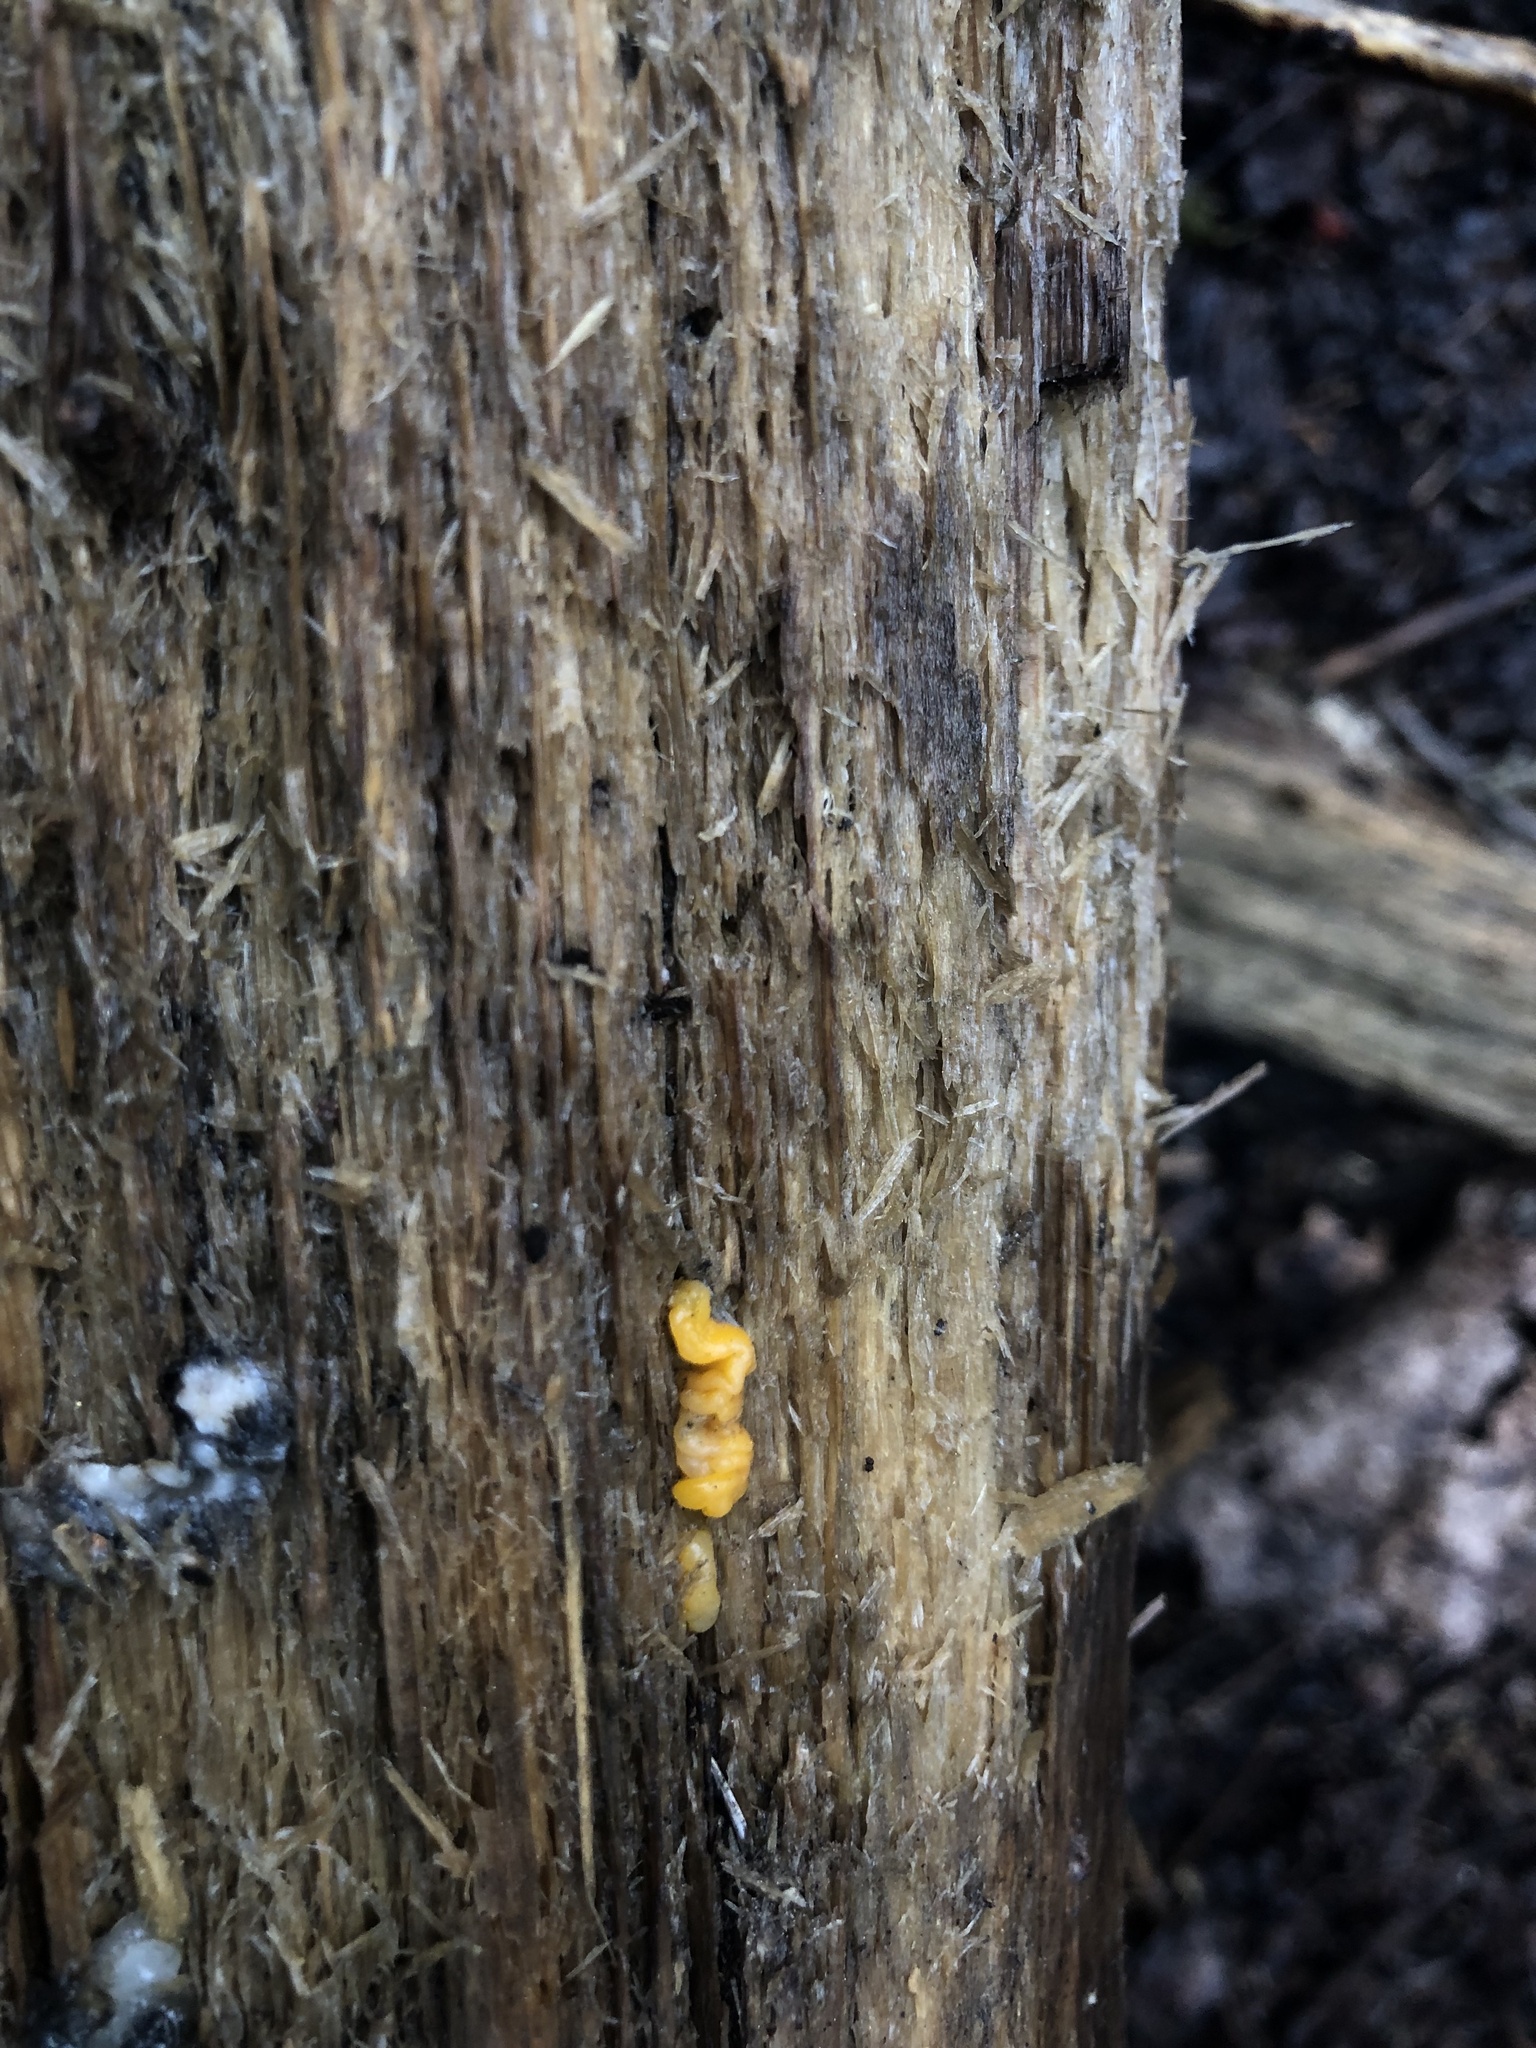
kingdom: Fungi
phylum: Basidiomycota
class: Dacrymycetes
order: Dacrymycetales
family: Dacrymycetaceae
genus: Dacrymyces
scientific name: Dacrymyces dictyosporus
